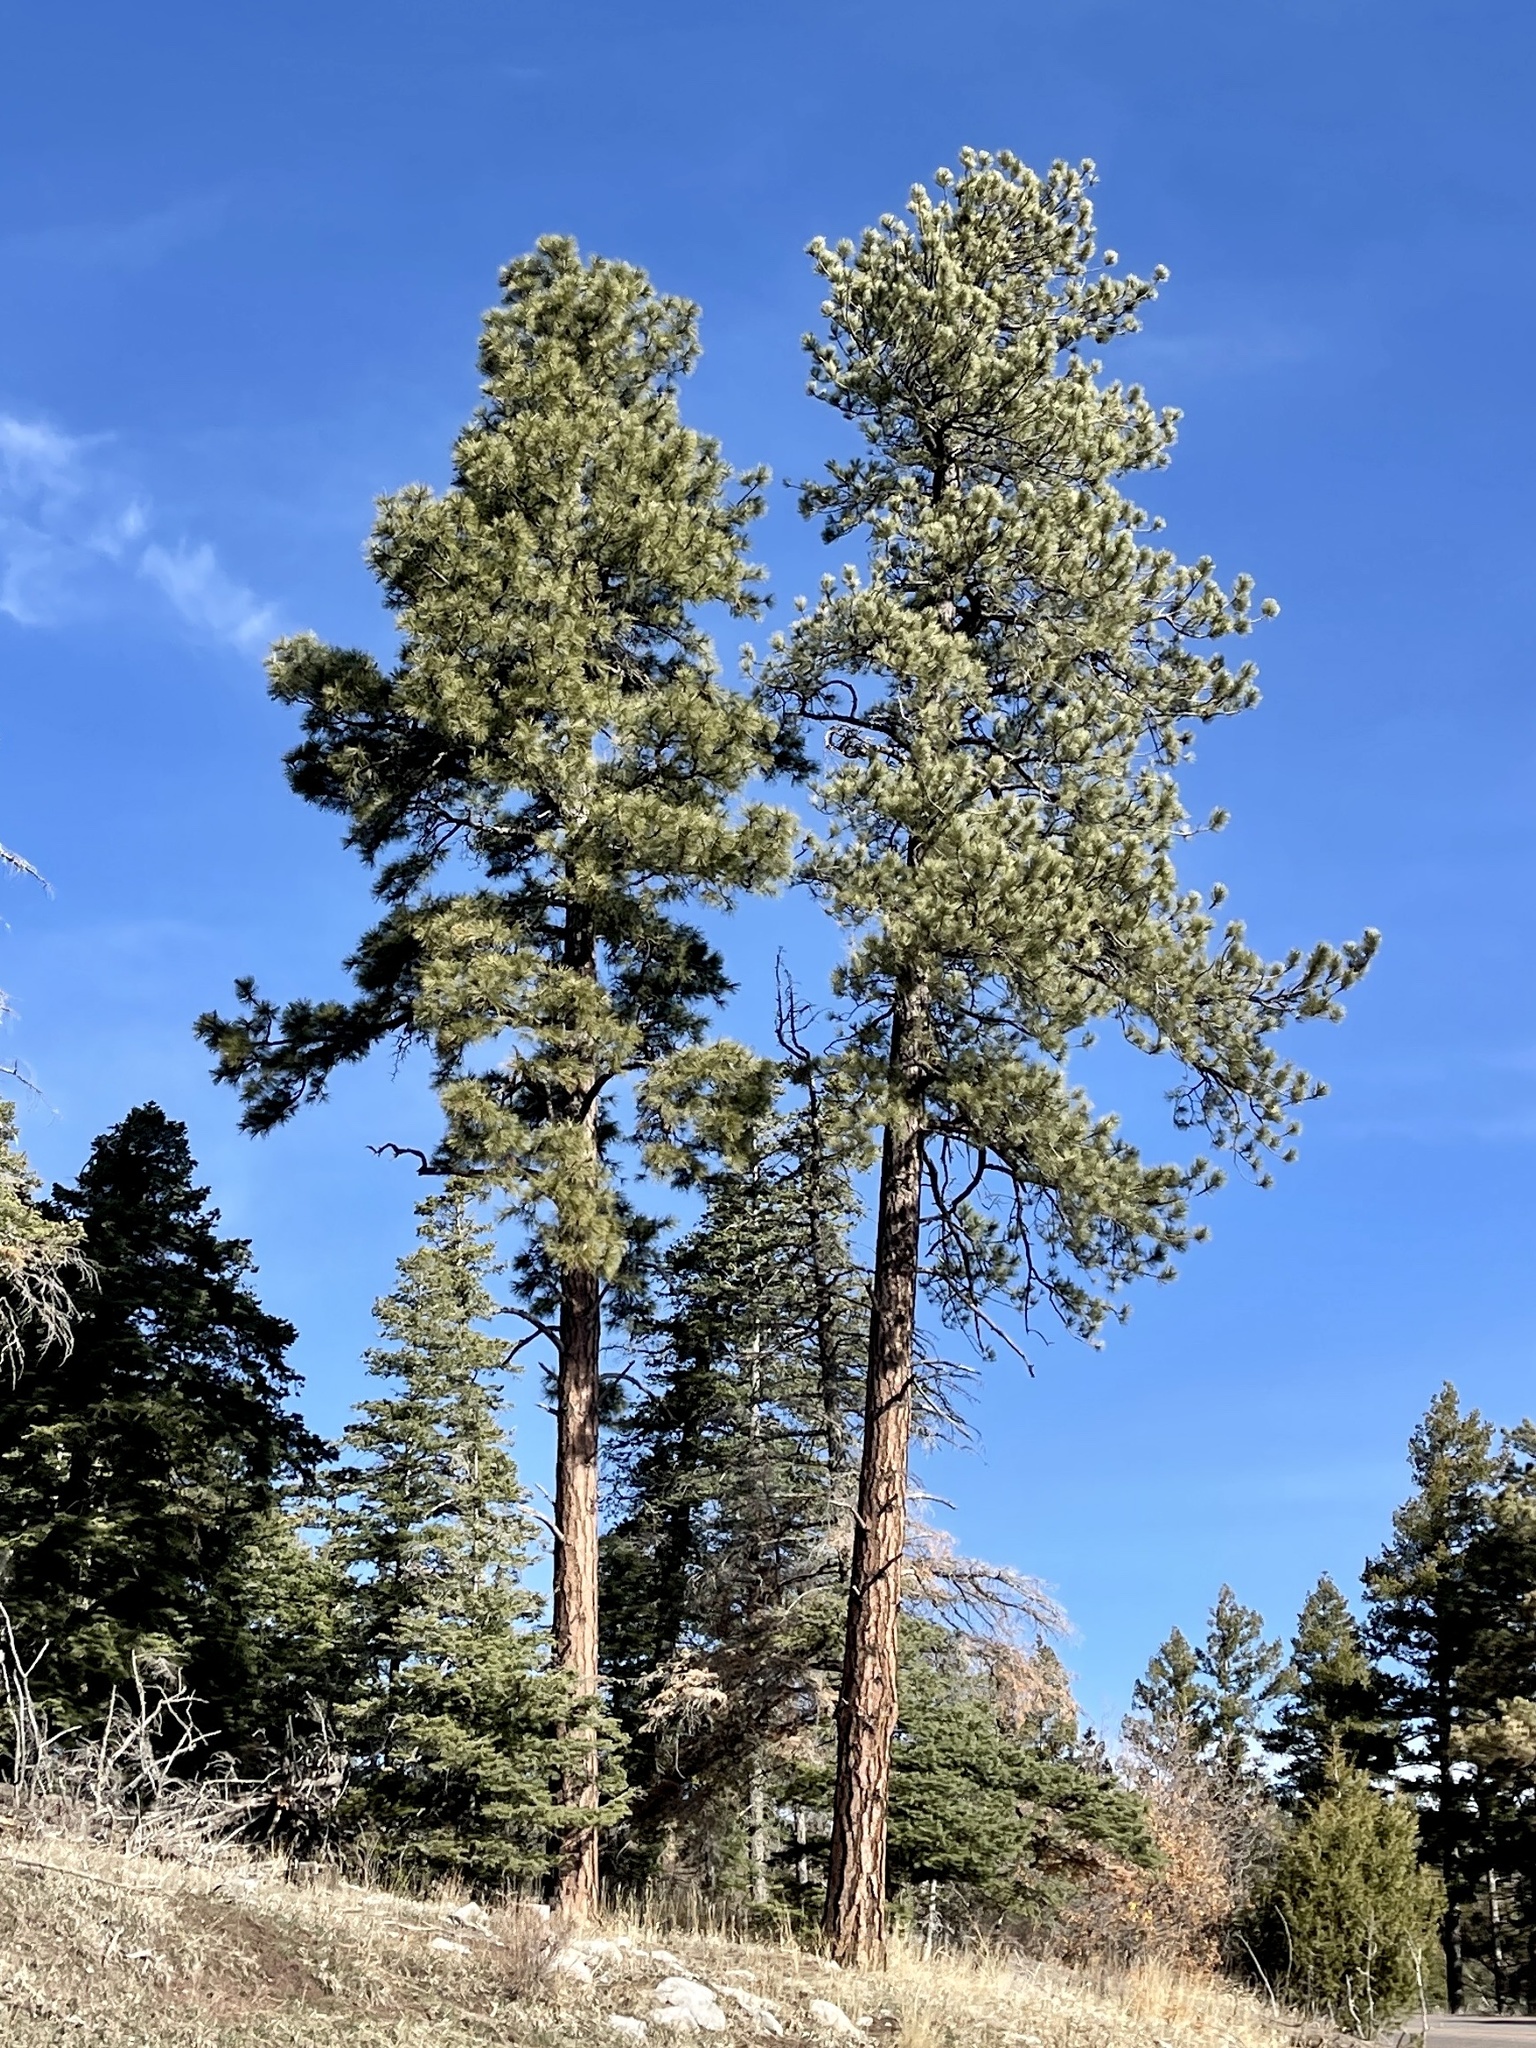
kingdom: Plantae
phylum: Tracheophyta
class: Pinopsida
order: Pinales
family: Pinaceae
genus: Pinus
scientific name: Pinus ponderosa
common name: Western yellow-pine
